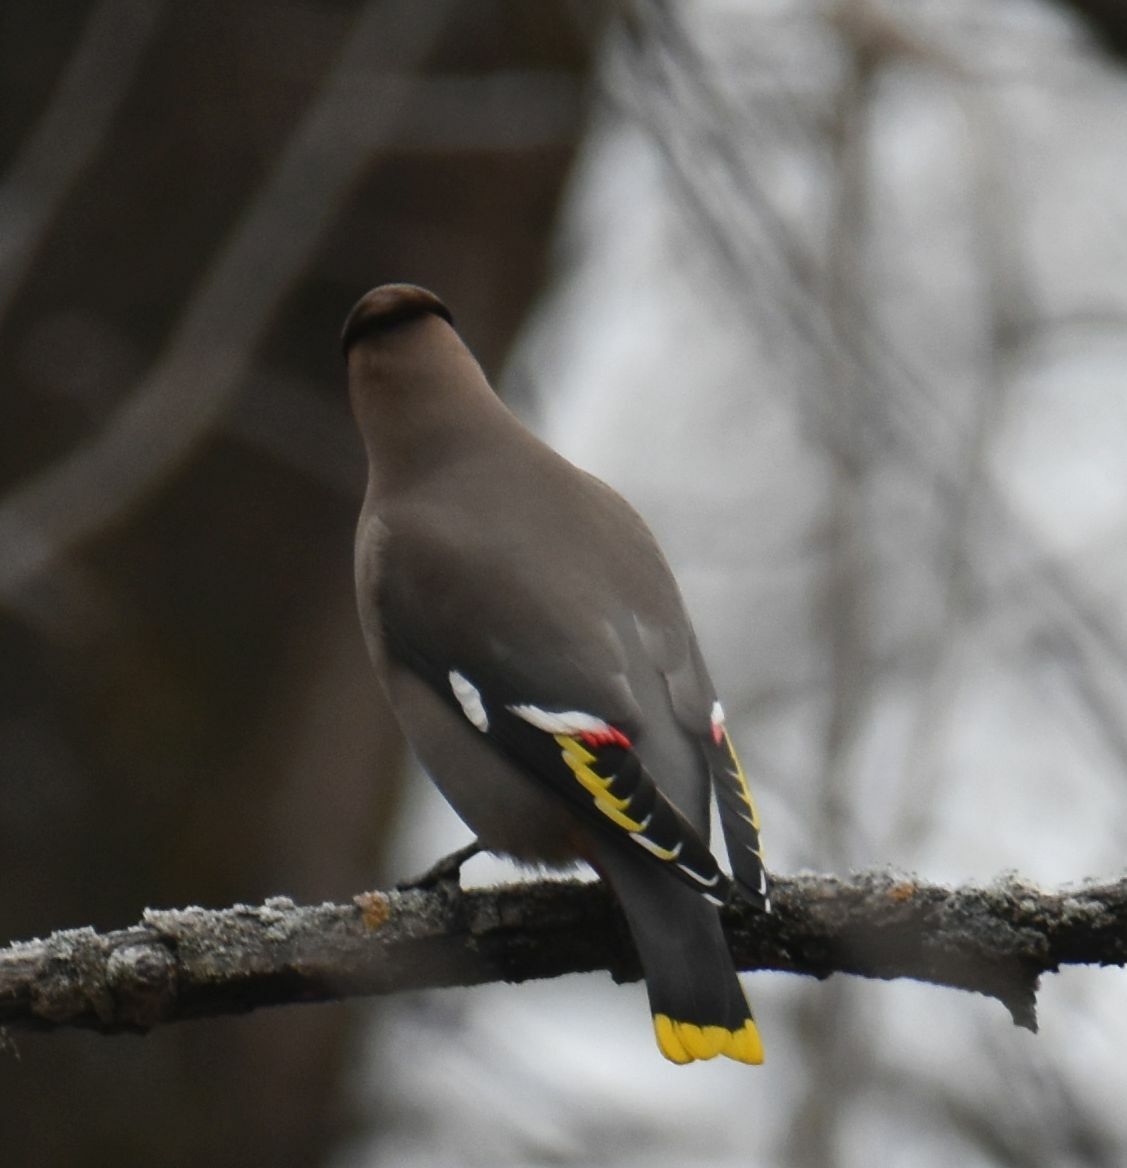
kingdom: Animalia
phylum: Chordata
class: Aves
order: Passeriformes
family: Bombycillidae
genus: Bombycilla
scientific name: Bombycilla garrulus
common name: Bohemian waxwing
